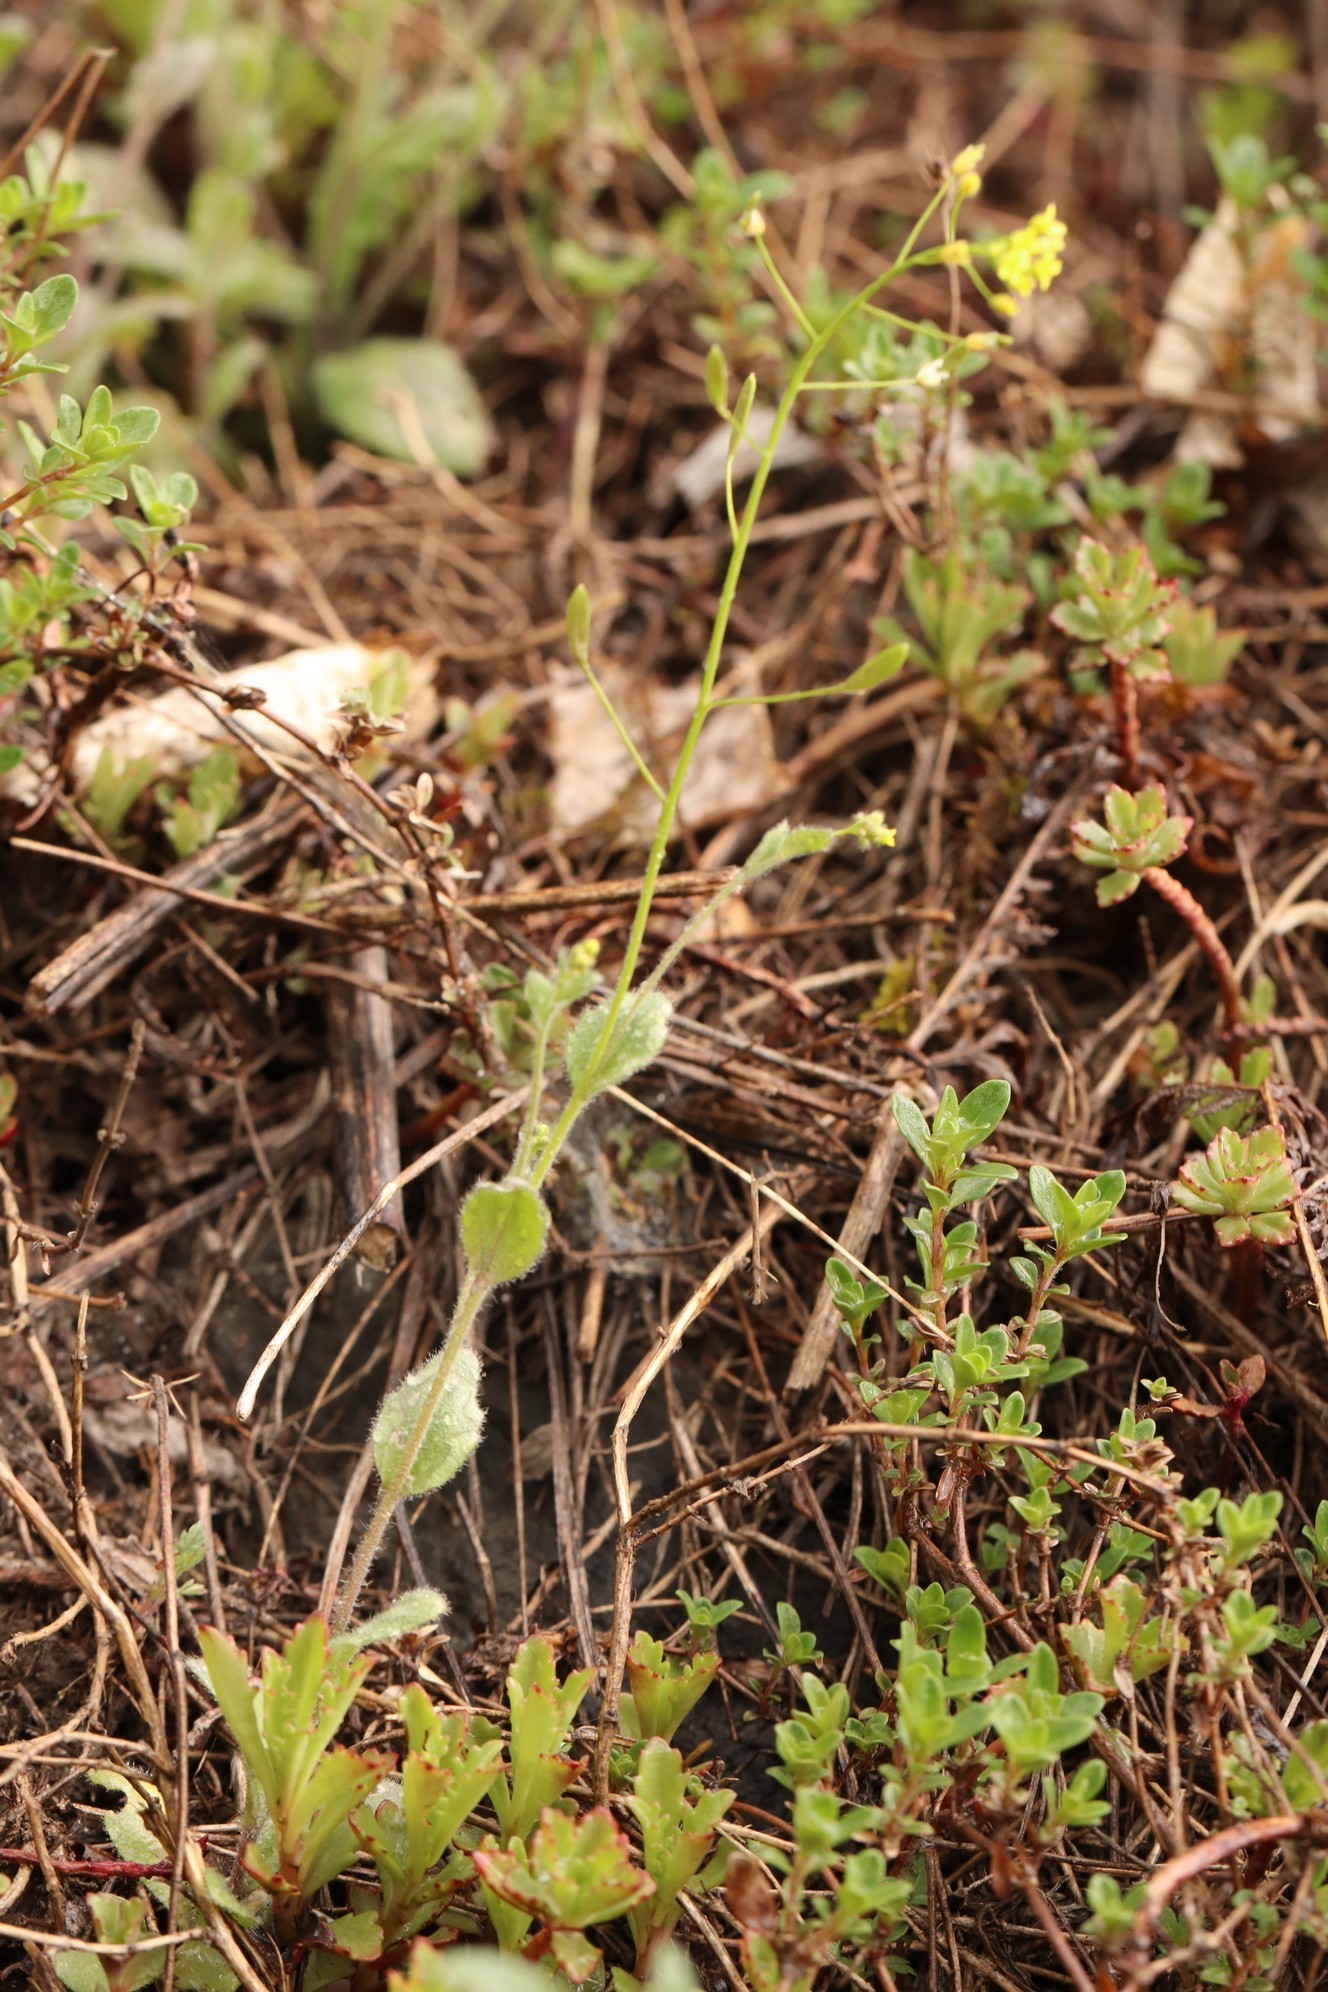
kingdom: Plantae
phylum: Tracheophyta
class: Magnoliopsida
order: Brassicales
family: Brassicaceae
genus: Draba
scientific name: Draba nemorosa
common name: Wood whitlow-grass
